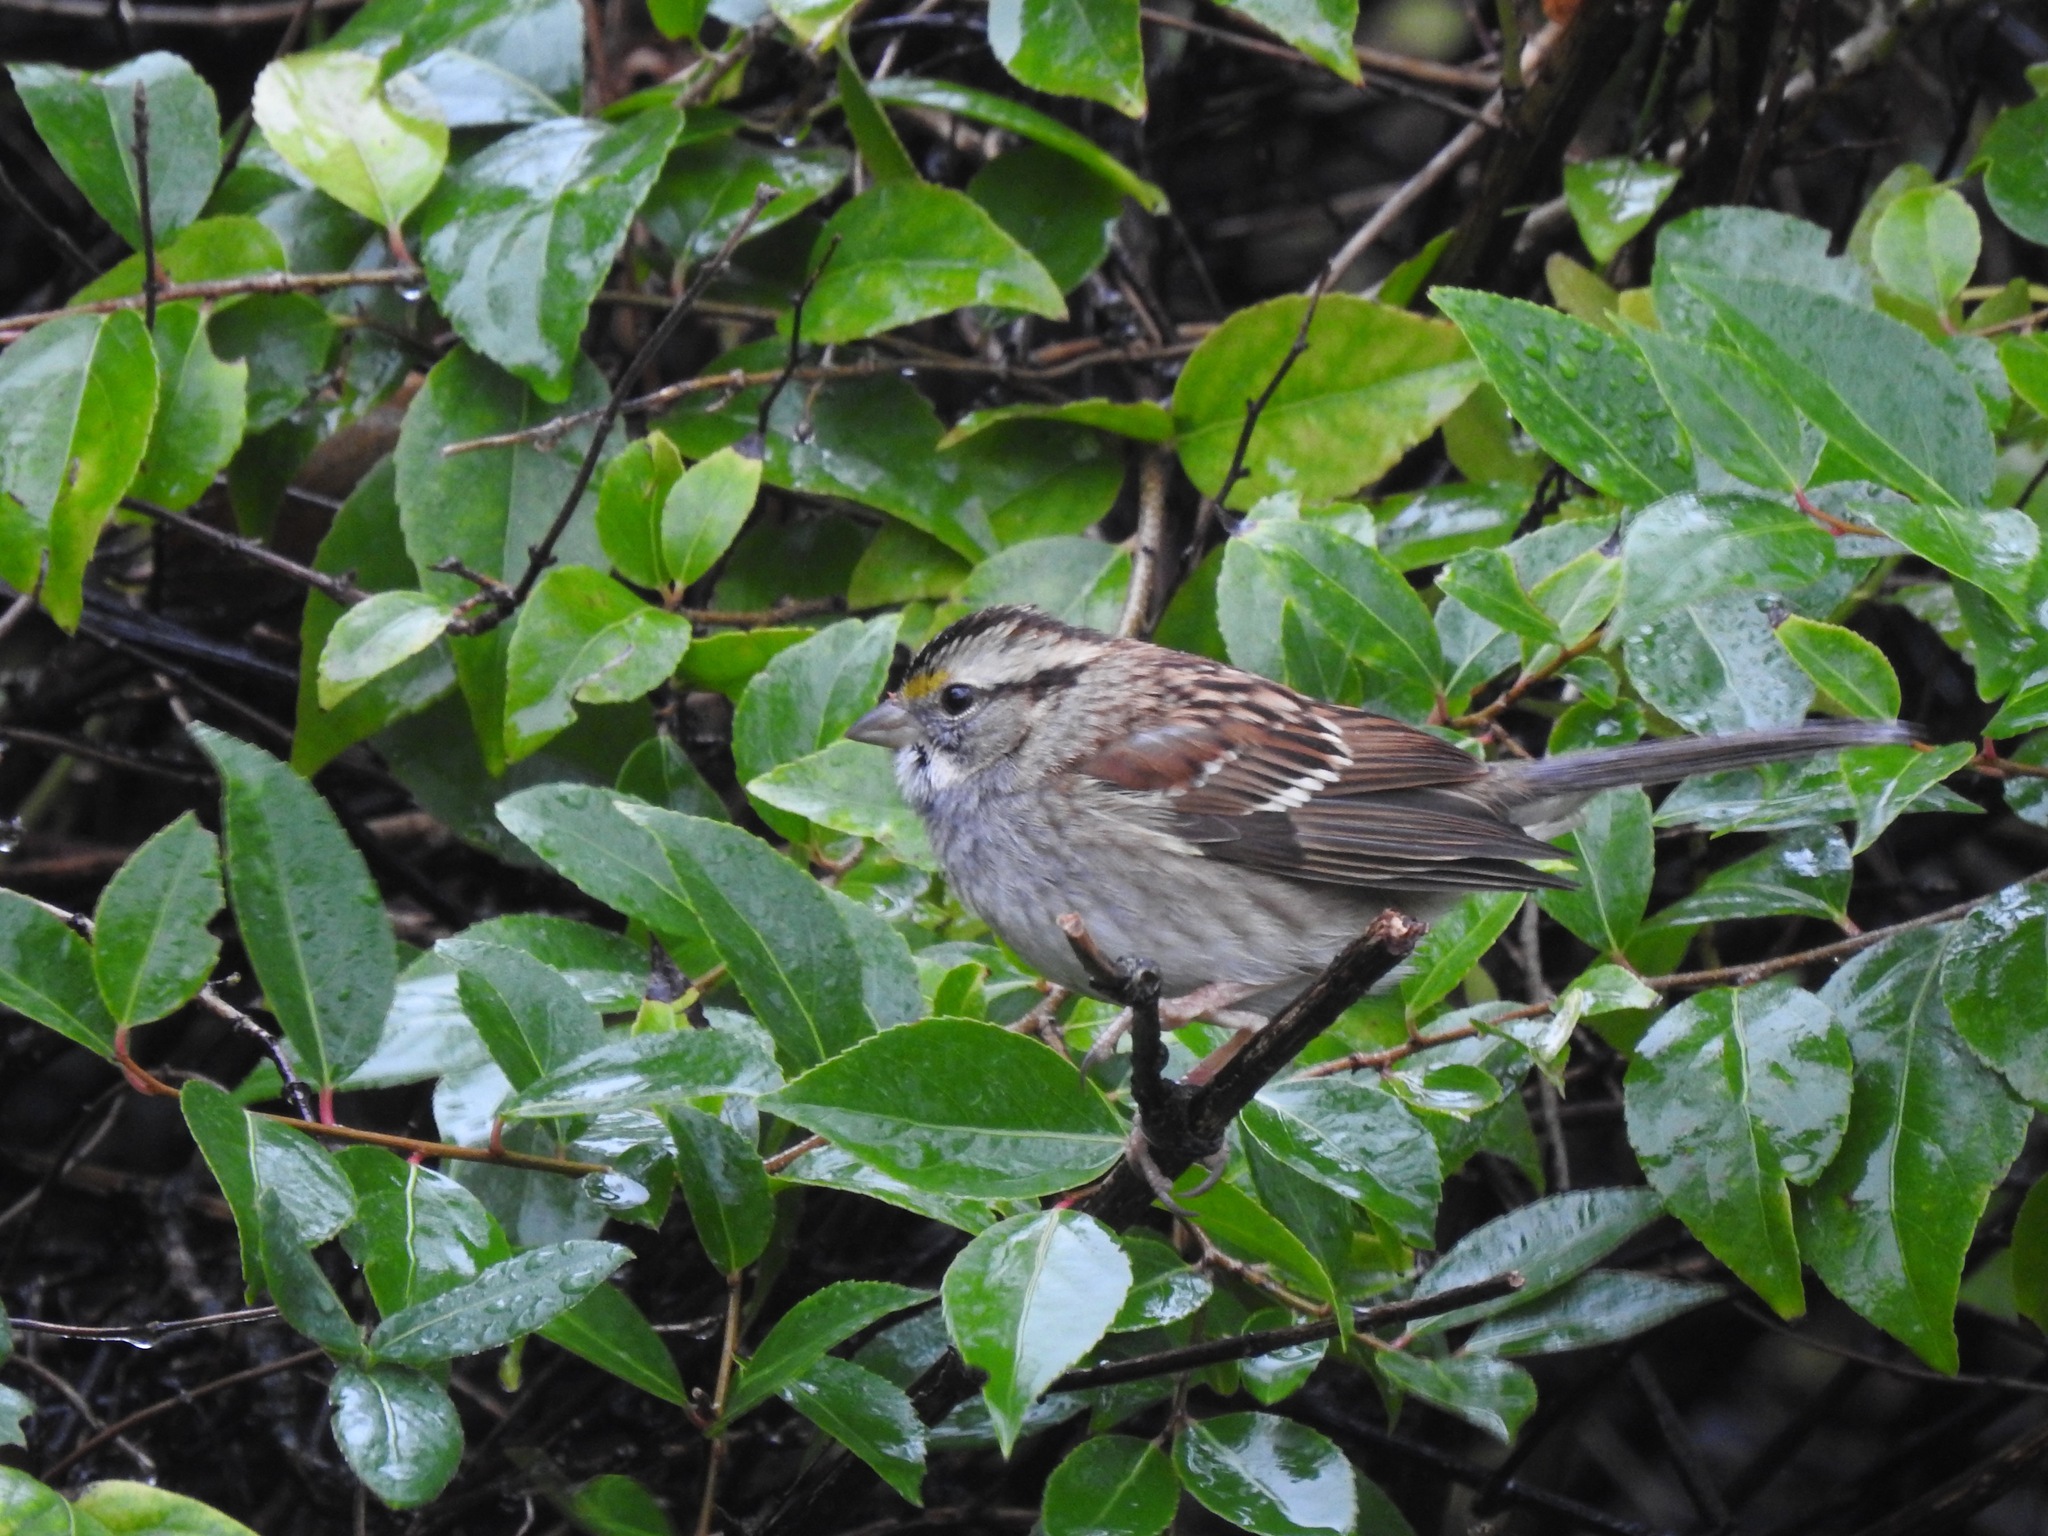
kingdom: Animalia
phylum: Chordata
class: Aves
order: Passeriformes
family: Passerellidae
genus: Zonotrichia
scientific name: Zonotrichia albicollis
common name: White-throated sparrow
